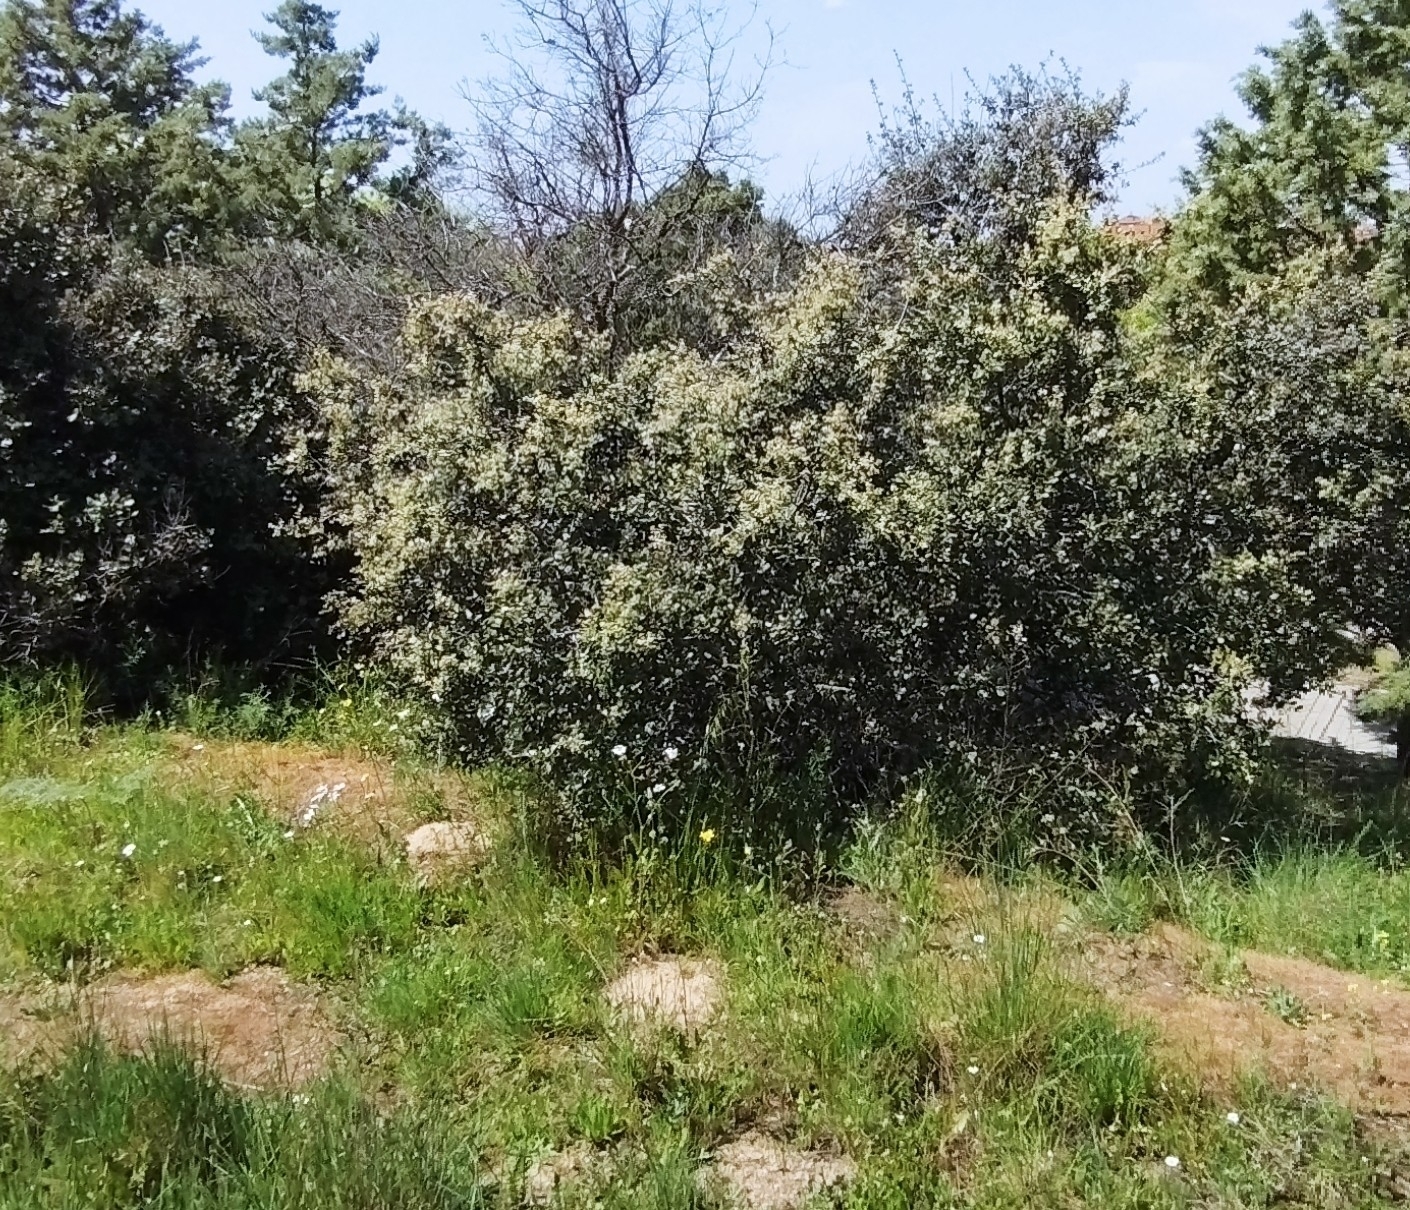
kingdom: Plantae
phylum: Tracheophyta
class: Magnoliopsida
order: Fagales
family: Fagaceae
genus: Quercus
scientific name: Quercus rotundifolia
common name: Holm oak
